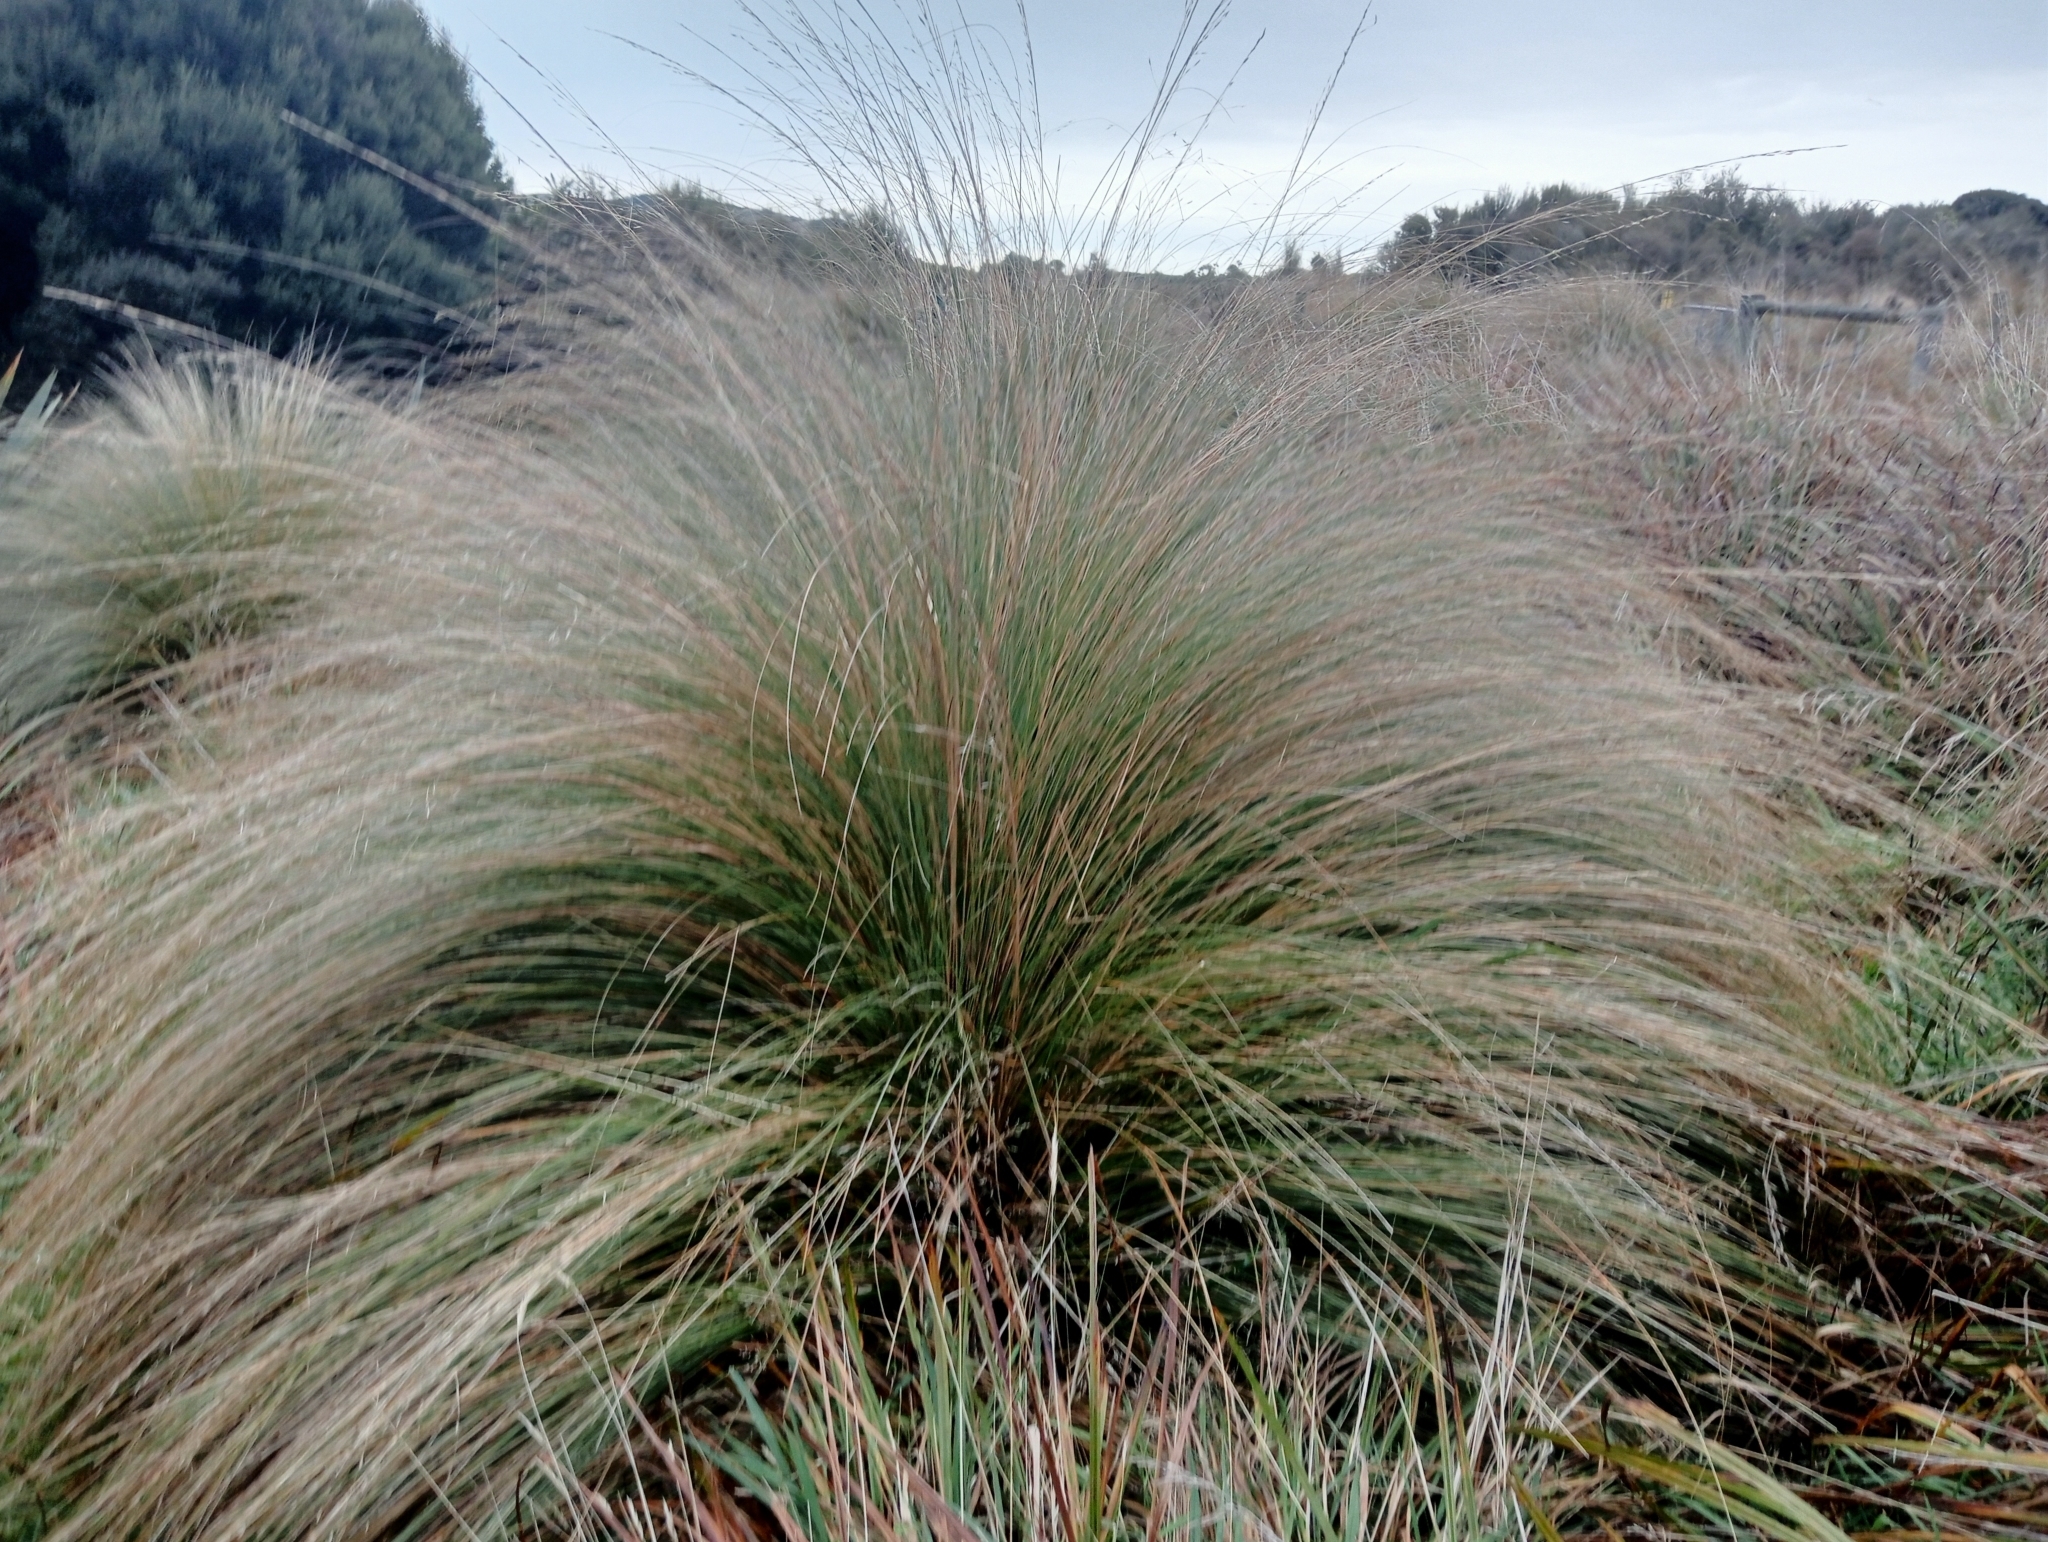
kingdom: Plantae
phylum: Tracheophyta
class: Liliopsida
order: Poales
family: Poaceae
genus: Chionochloa
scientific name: Chionochloa rubra
